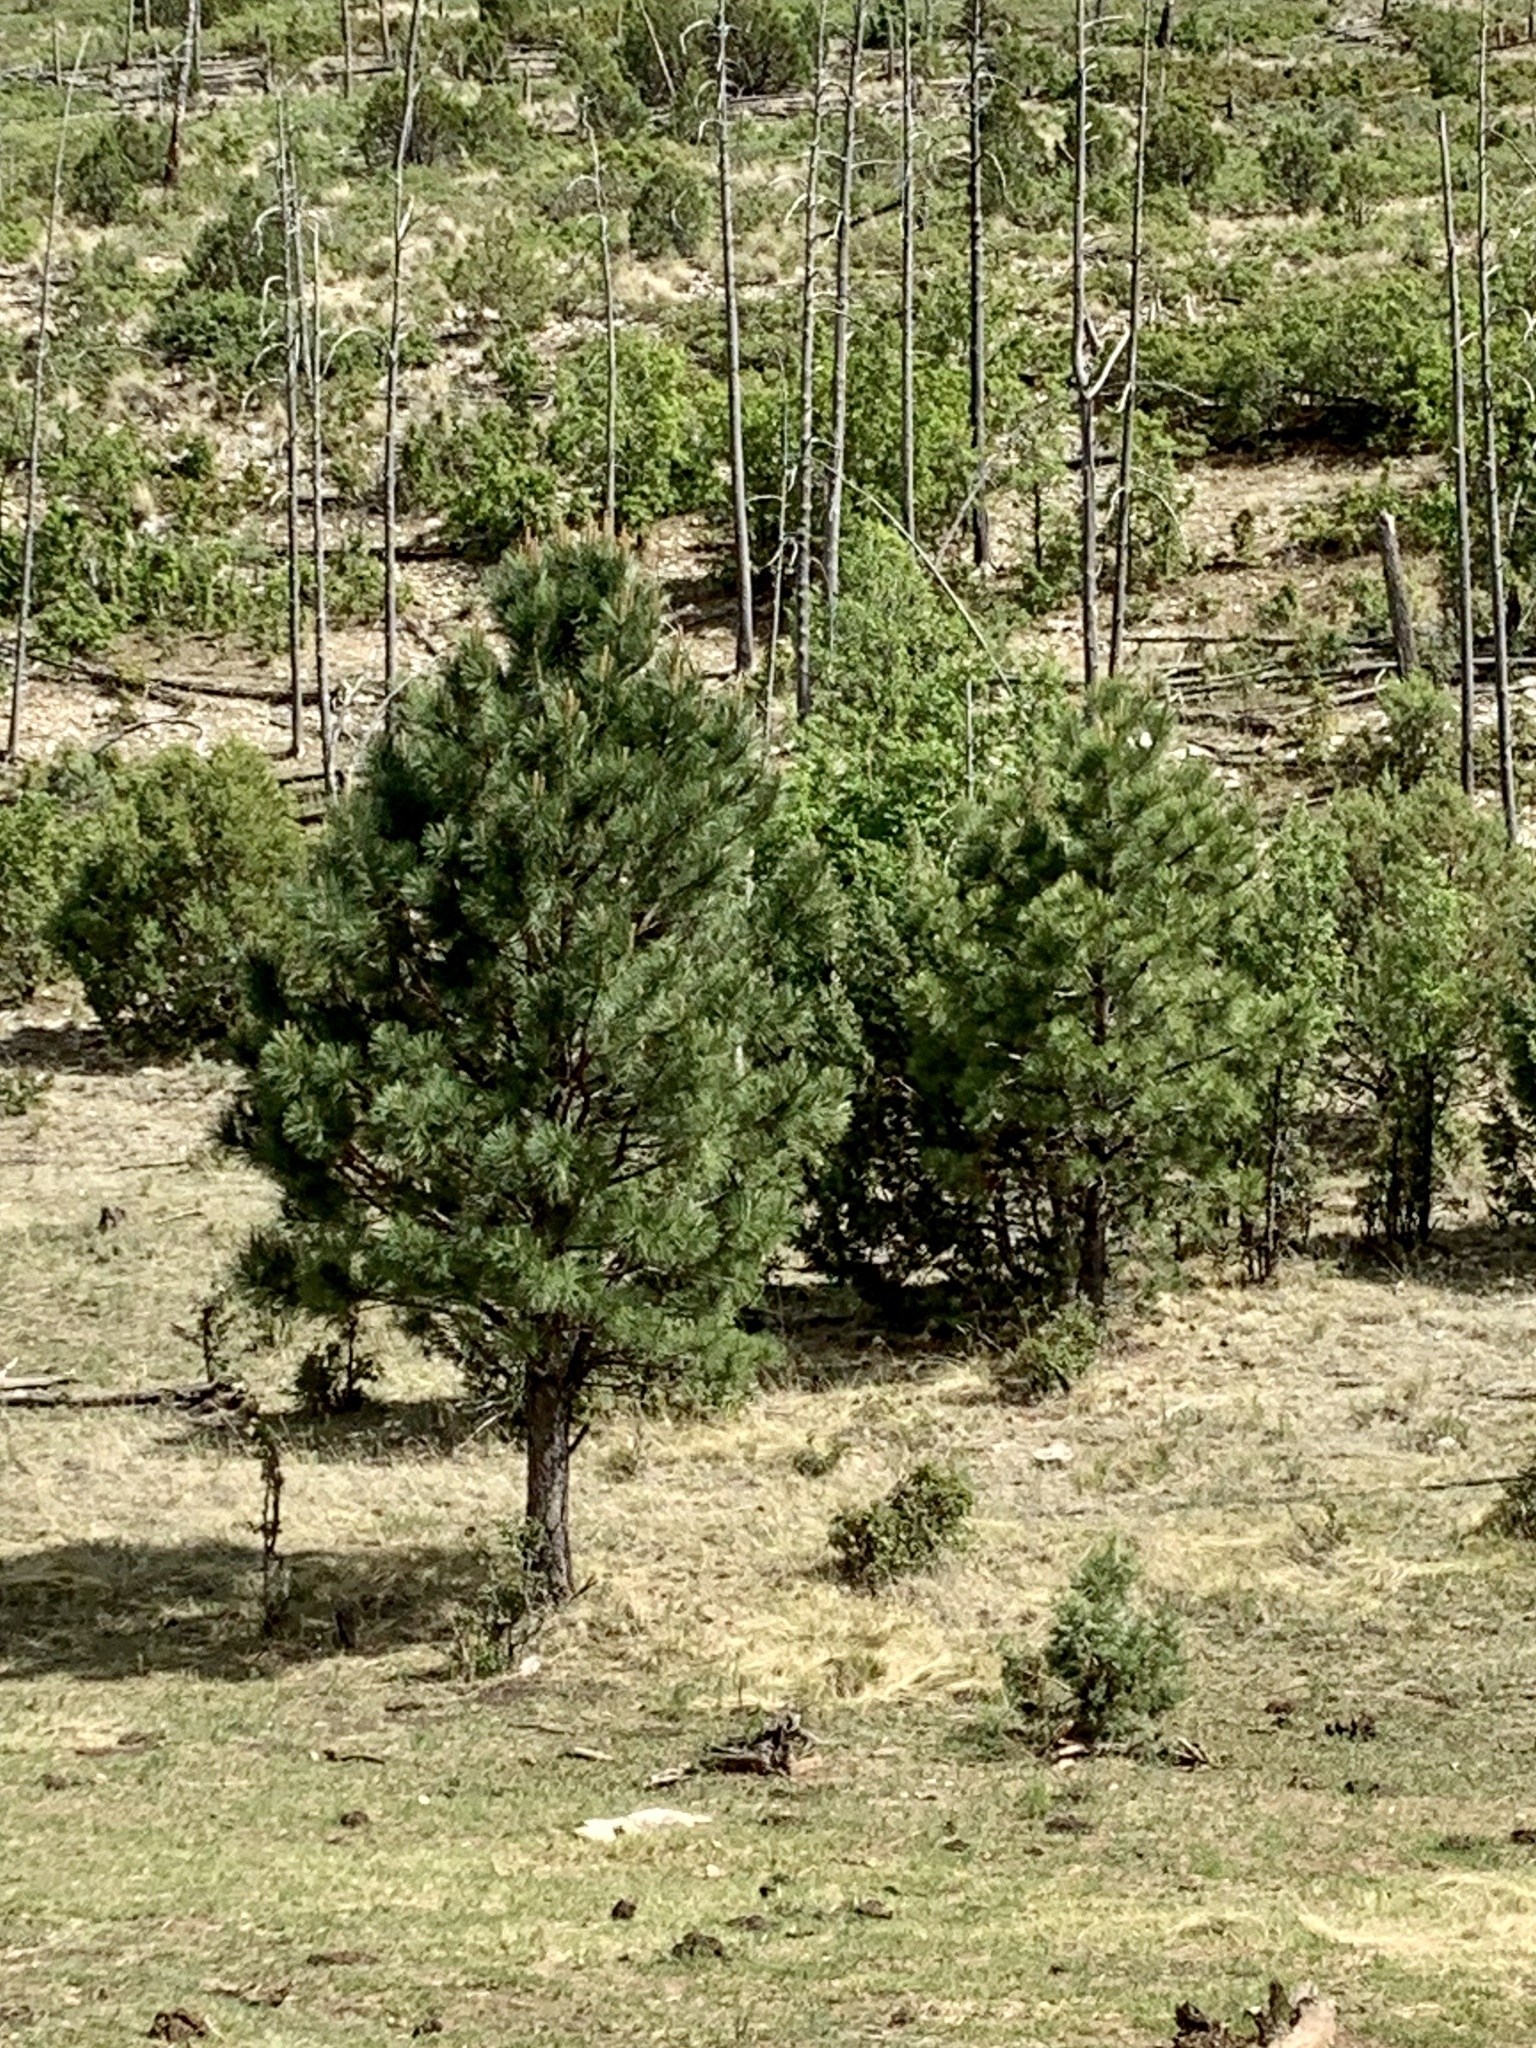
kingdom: Plantae
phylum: Tracheophyta
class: Pinopsida
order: Pinales
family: Pinaceae
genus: Pinus
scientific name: Pinus ponderosa
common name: Western yellow-pine
